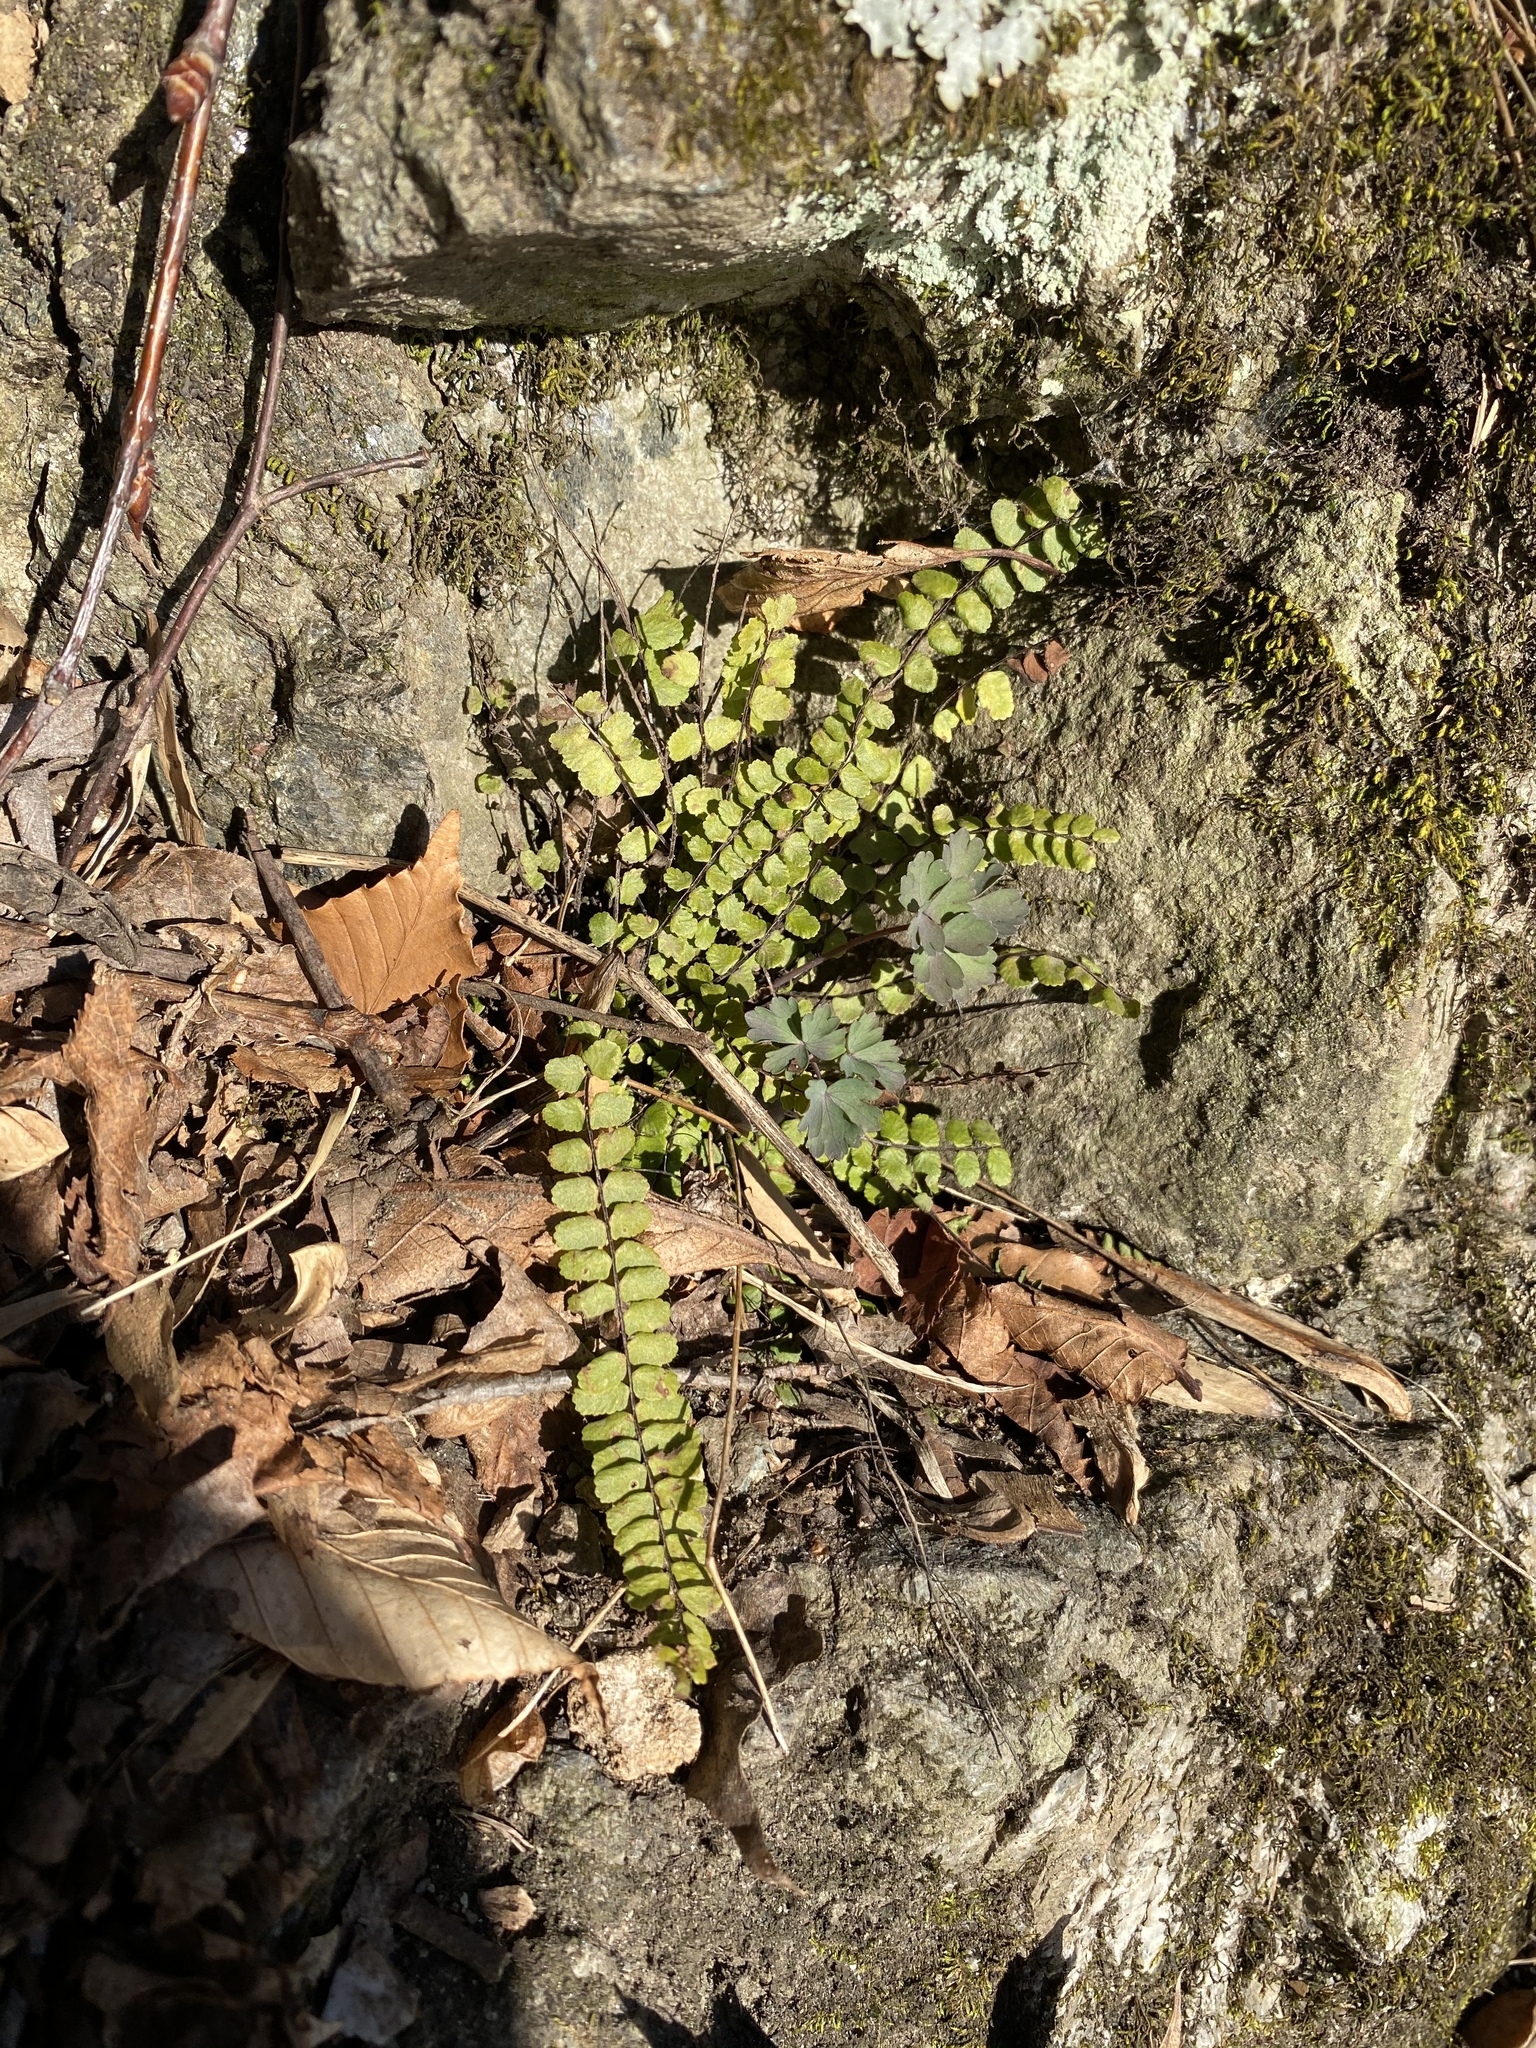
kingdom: Plantae
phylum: Tracheophyta
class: Polypodiopsida
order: Polypodiales
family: Aspleniaceae
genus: Asplenium
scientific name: Asplenium trichomanes
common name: Maidenhair spleenwort
